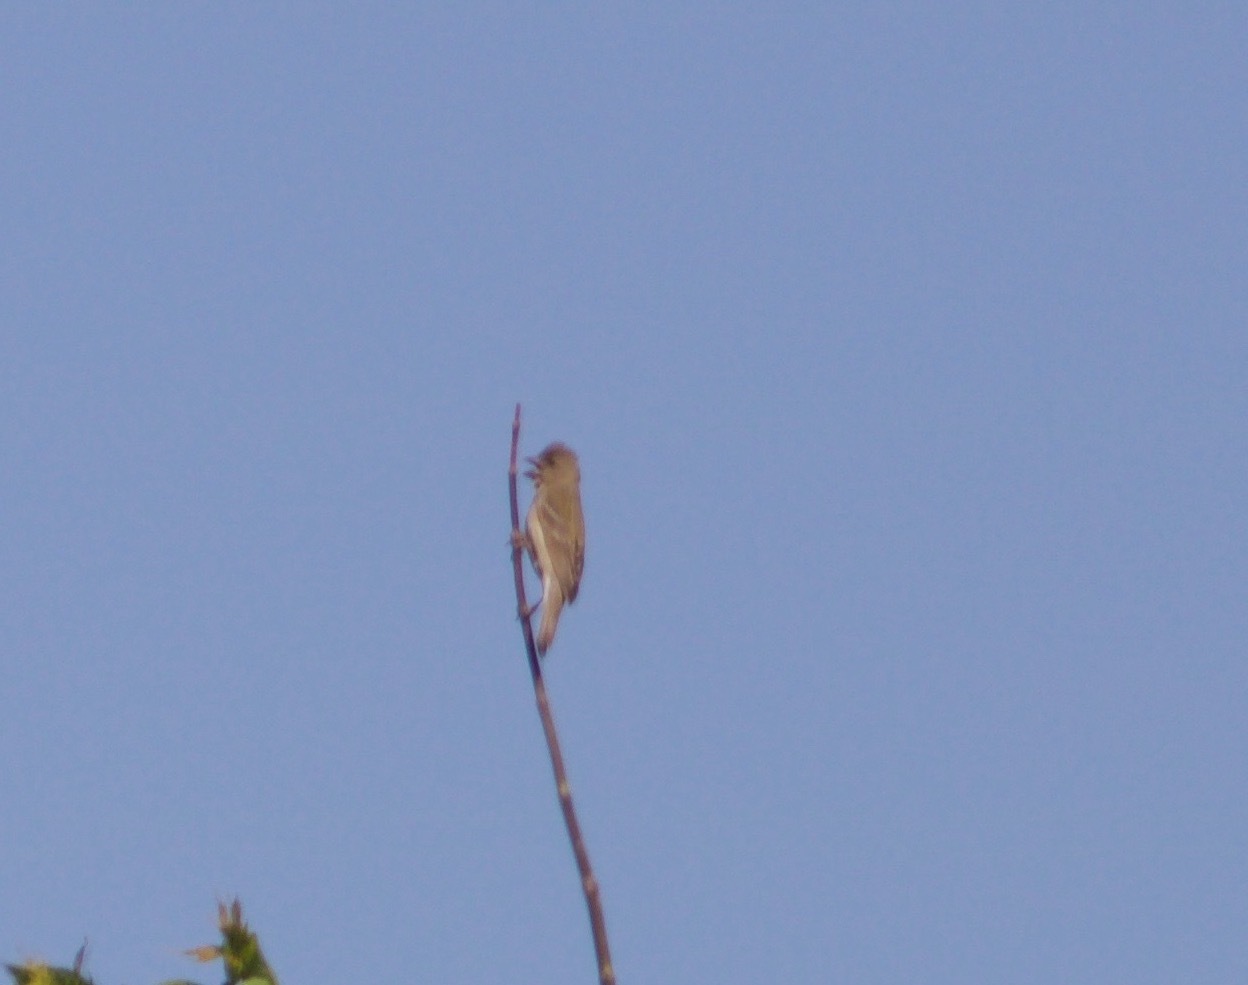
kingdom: Animalia
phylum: Chordata
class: Aves
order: Passeriformes
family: Fringillidae
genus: Carpodacus
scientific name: Carpodacus erythrinus
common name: Common rosefinch
